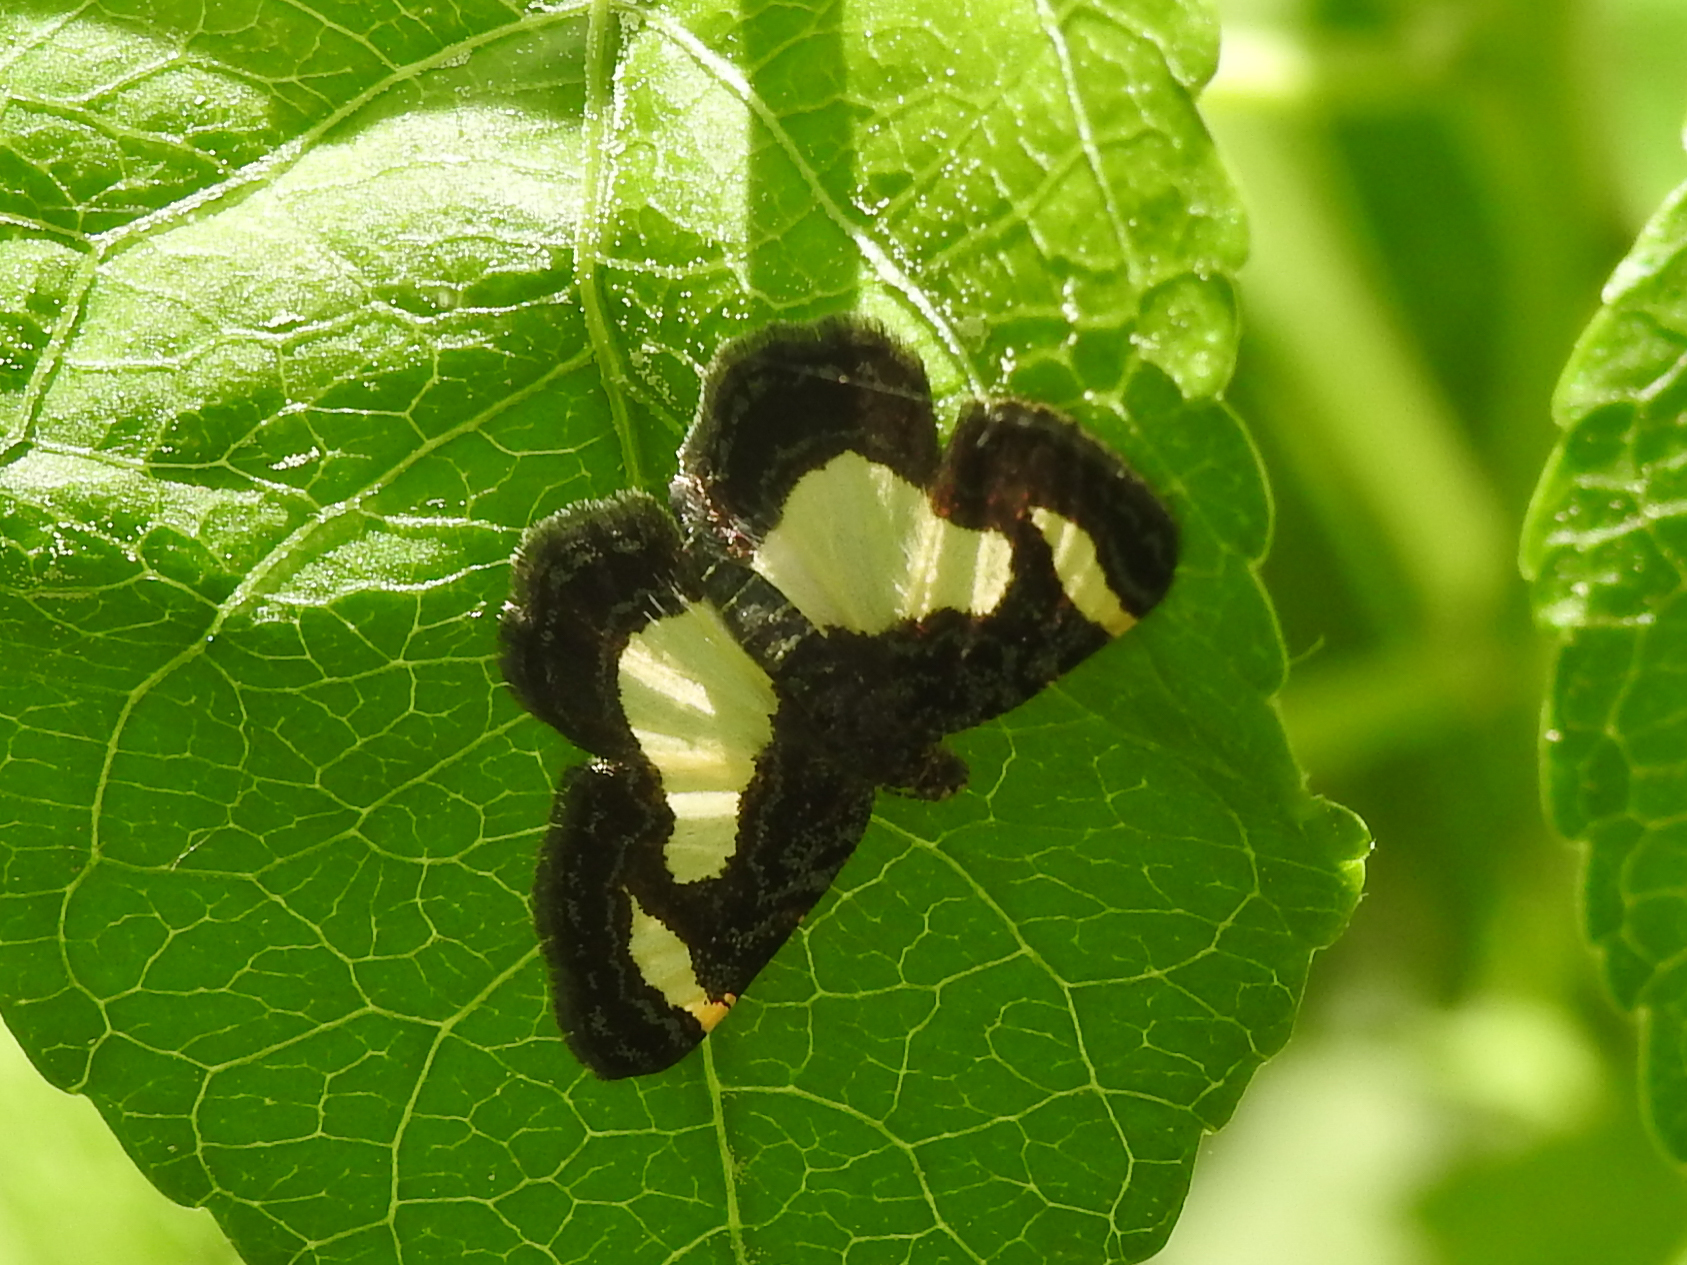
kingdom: Animalia
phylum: Arthropoda
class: Insecta
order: Lepidoptera
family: Geometridae
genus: Heliomata
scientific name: Heliomata cycladata
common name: Common spring moth
